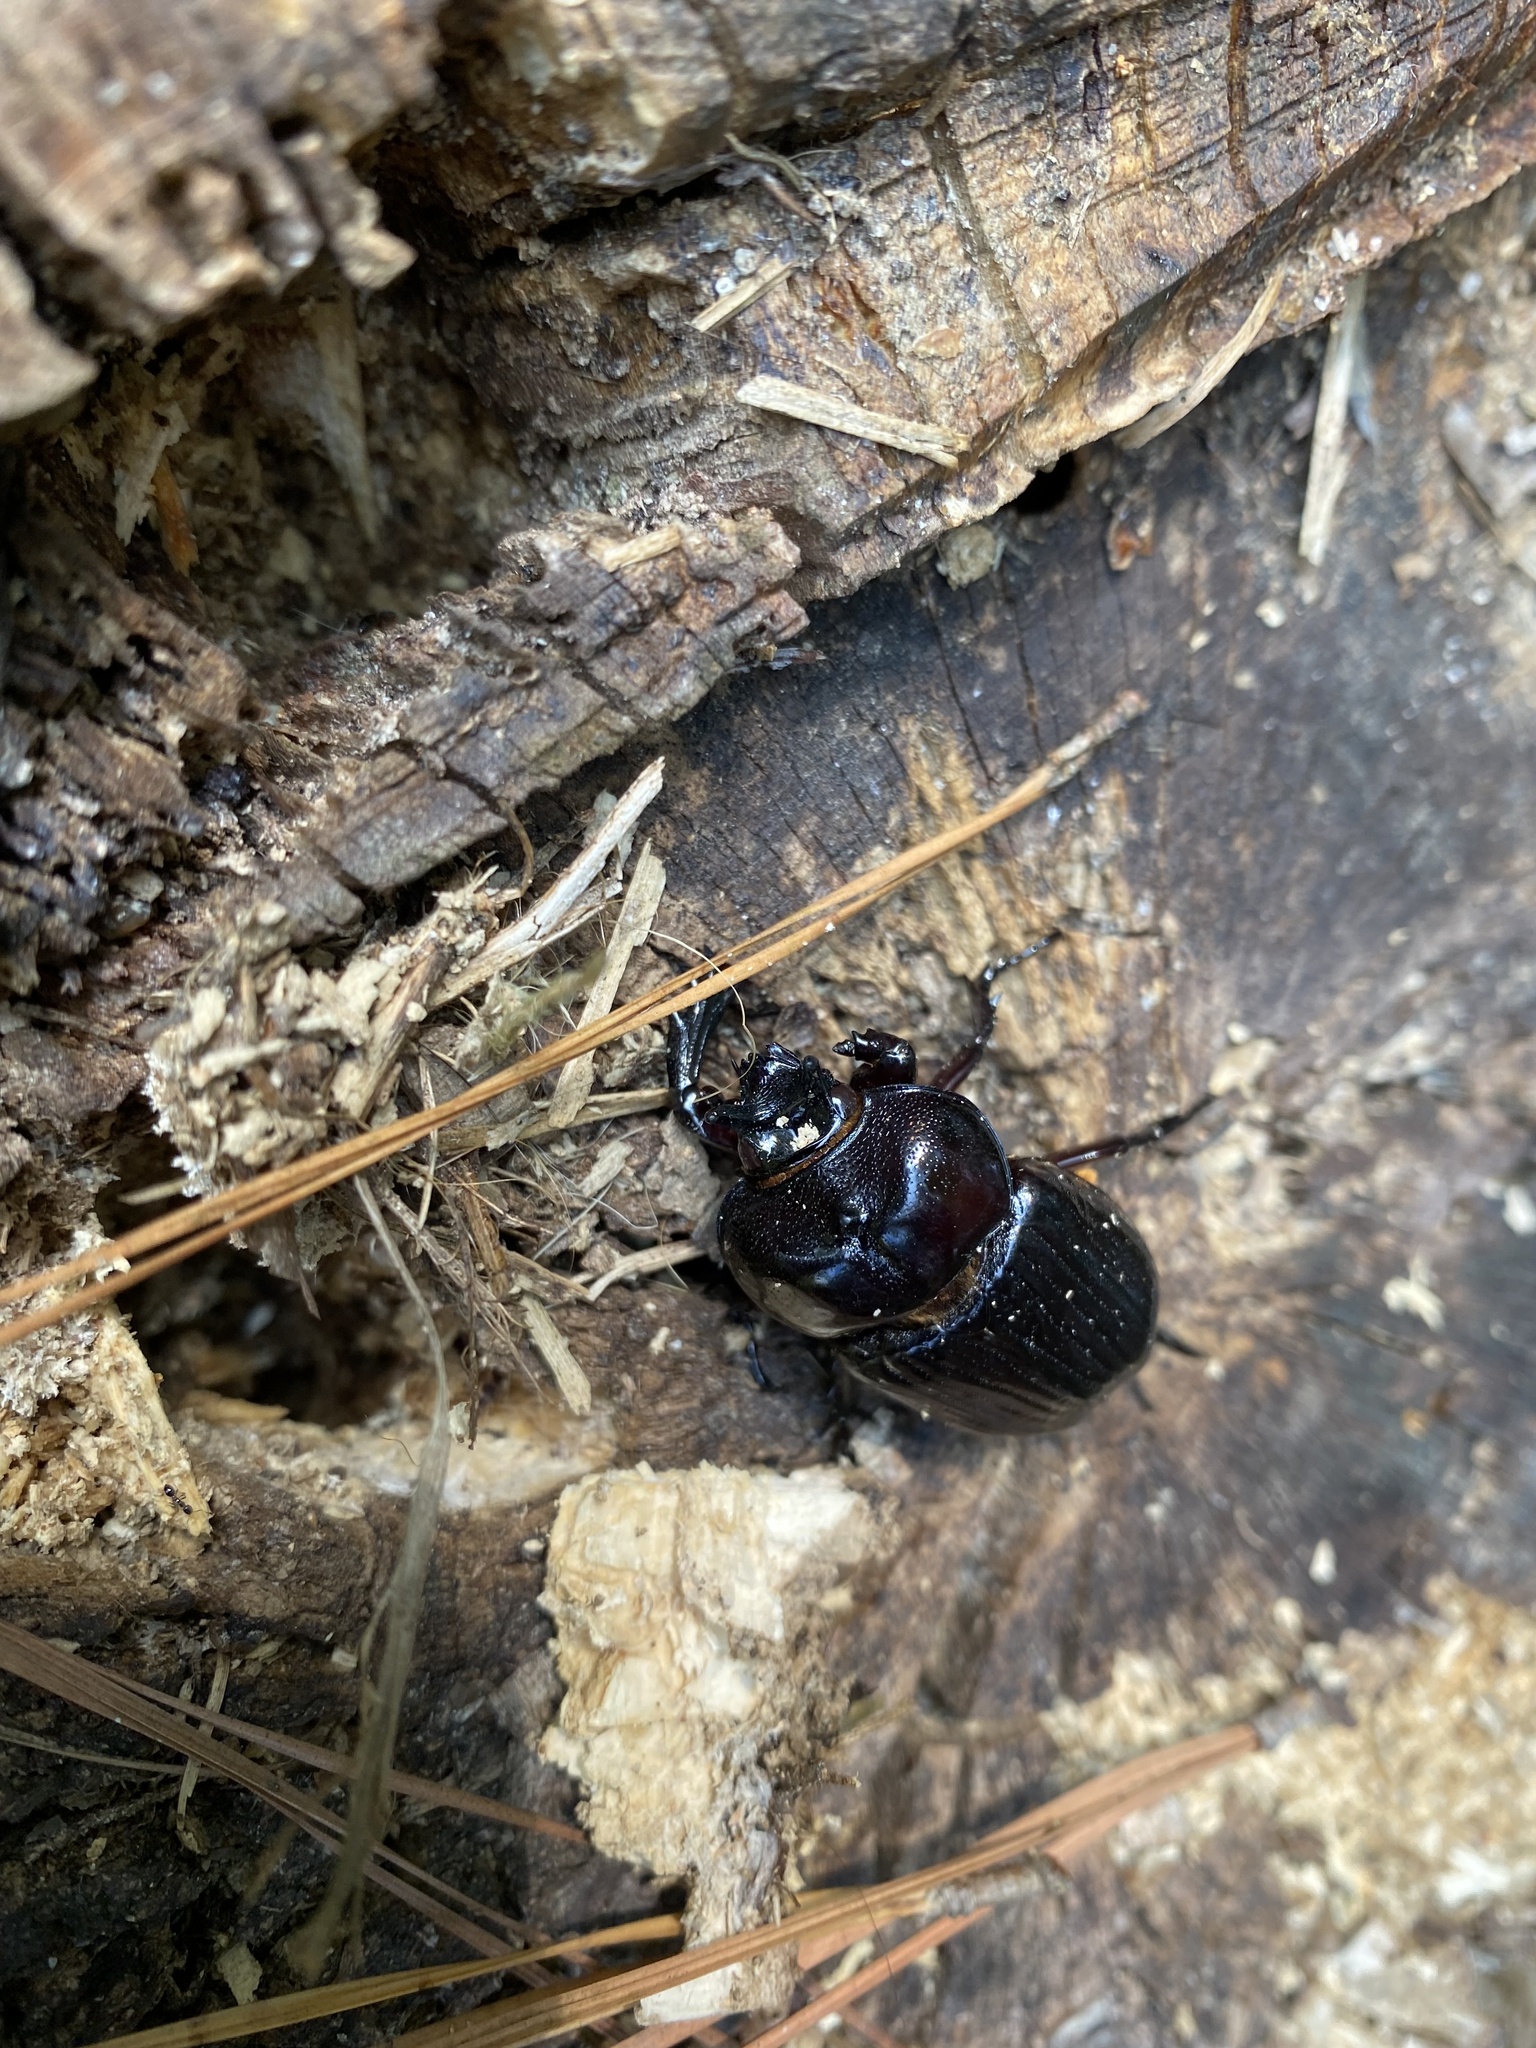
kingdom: Animalia
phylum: Arthropoda
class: Insecta
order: Coleoptera
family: Scarabaeidae
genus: Phileurus
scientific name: Phileurus truncatus
